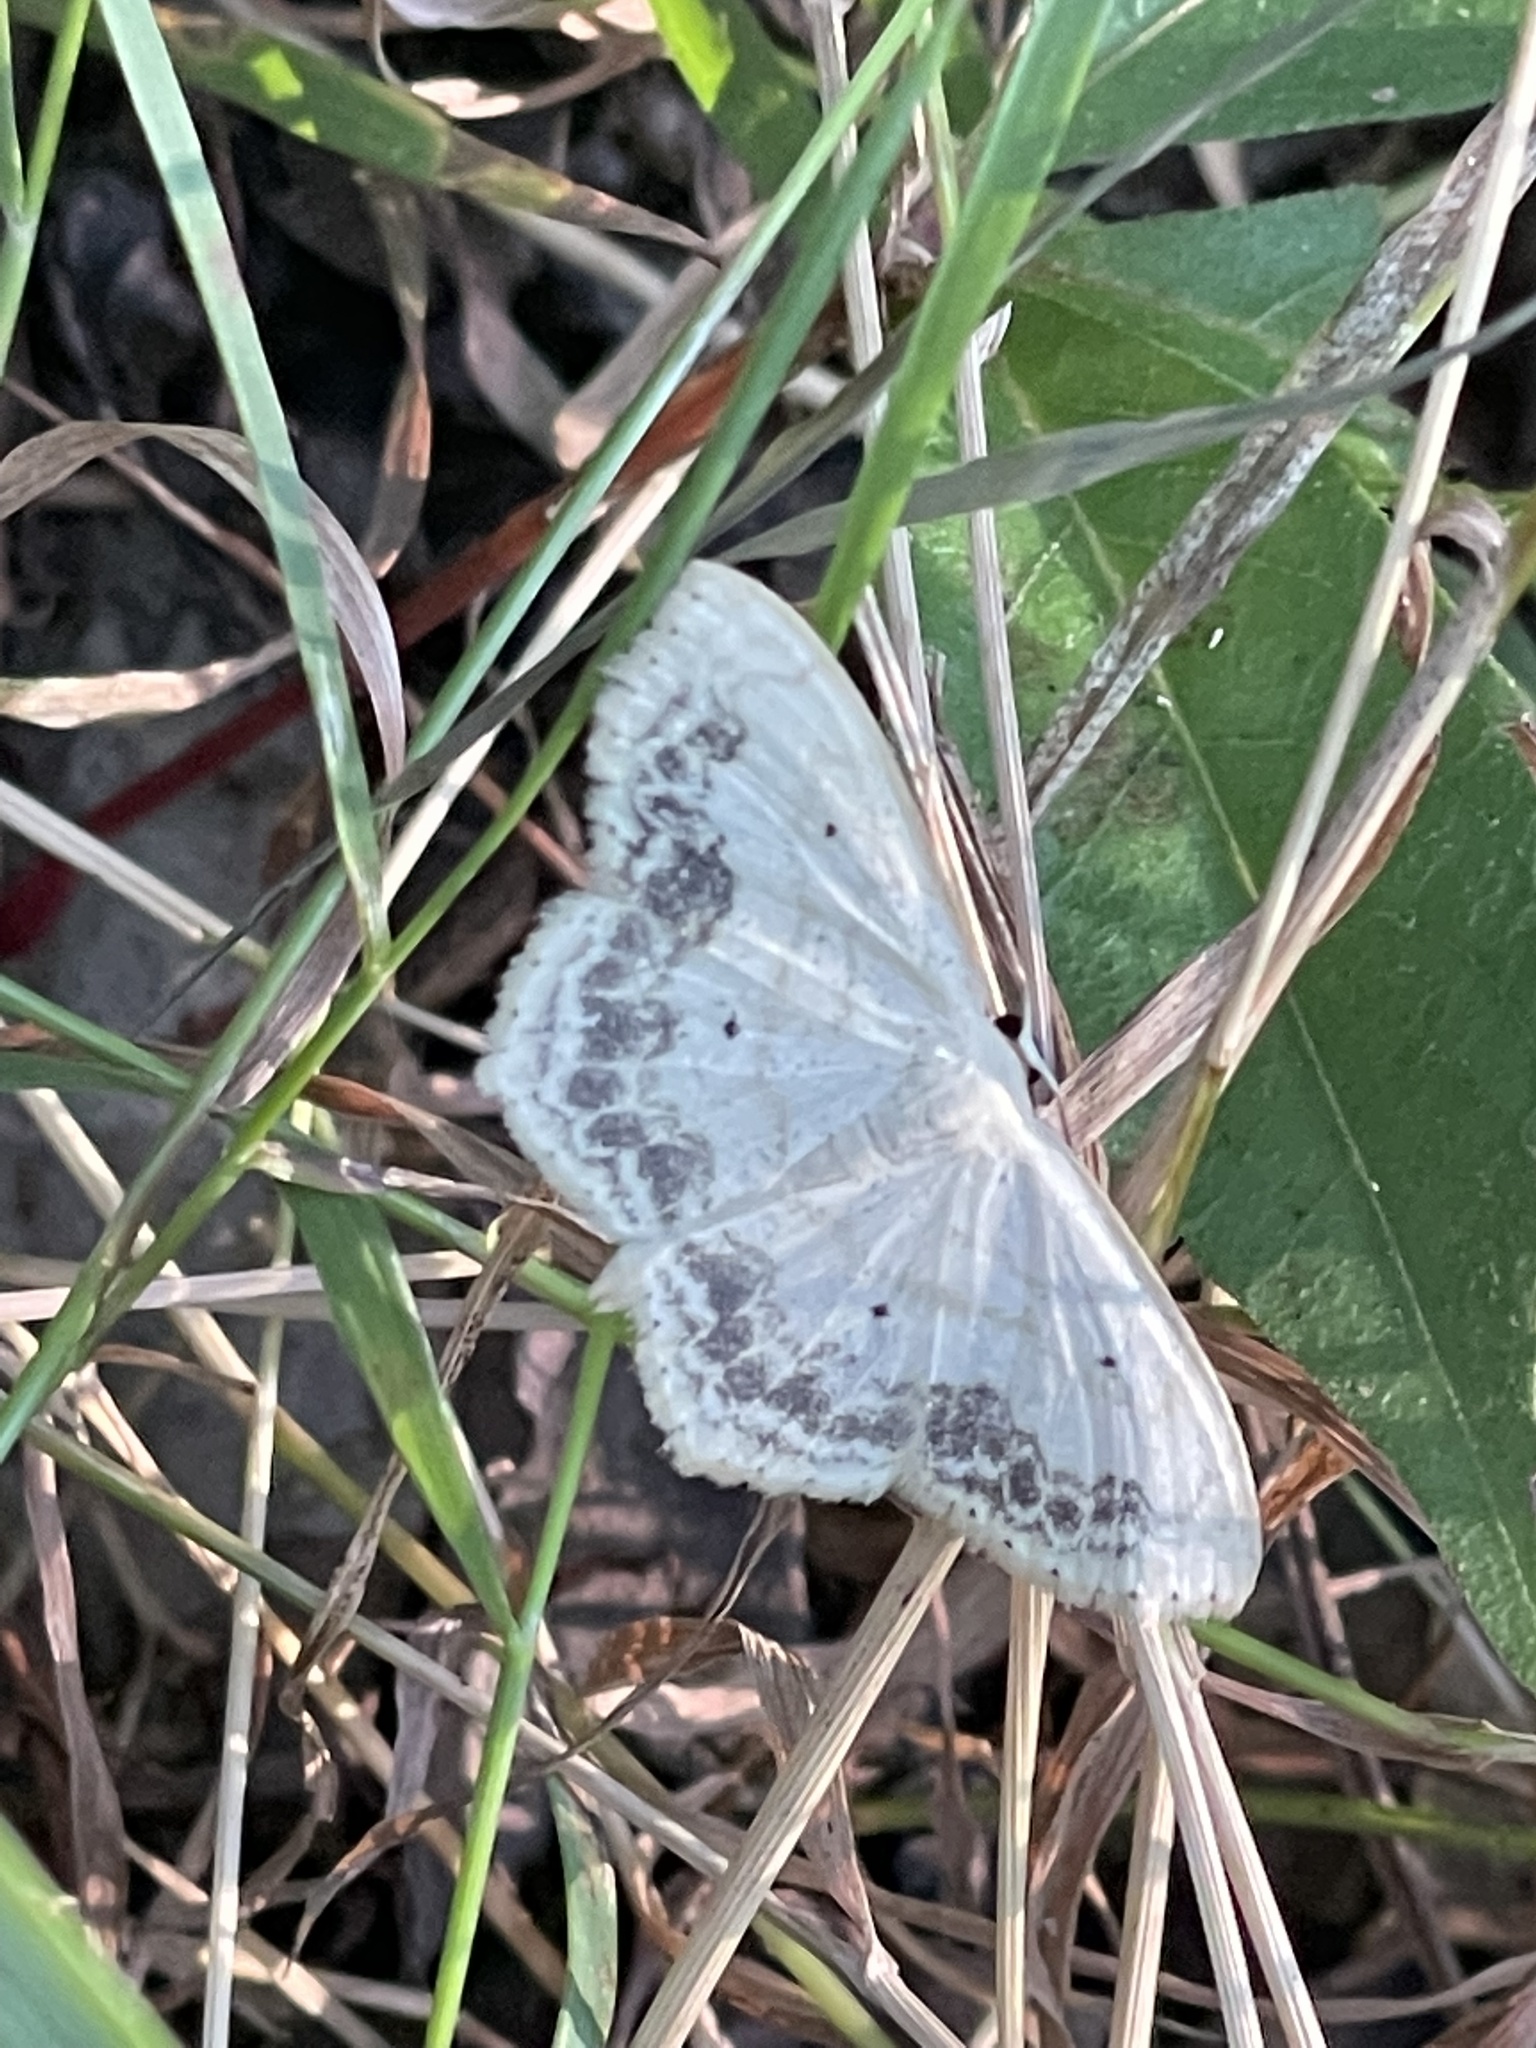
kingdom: Animalia
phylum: Arthropoda
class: Insecta
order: Lepidoptera
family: Geometridae
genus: Scopula
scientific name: Scopula limboundata
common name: Large lace border
